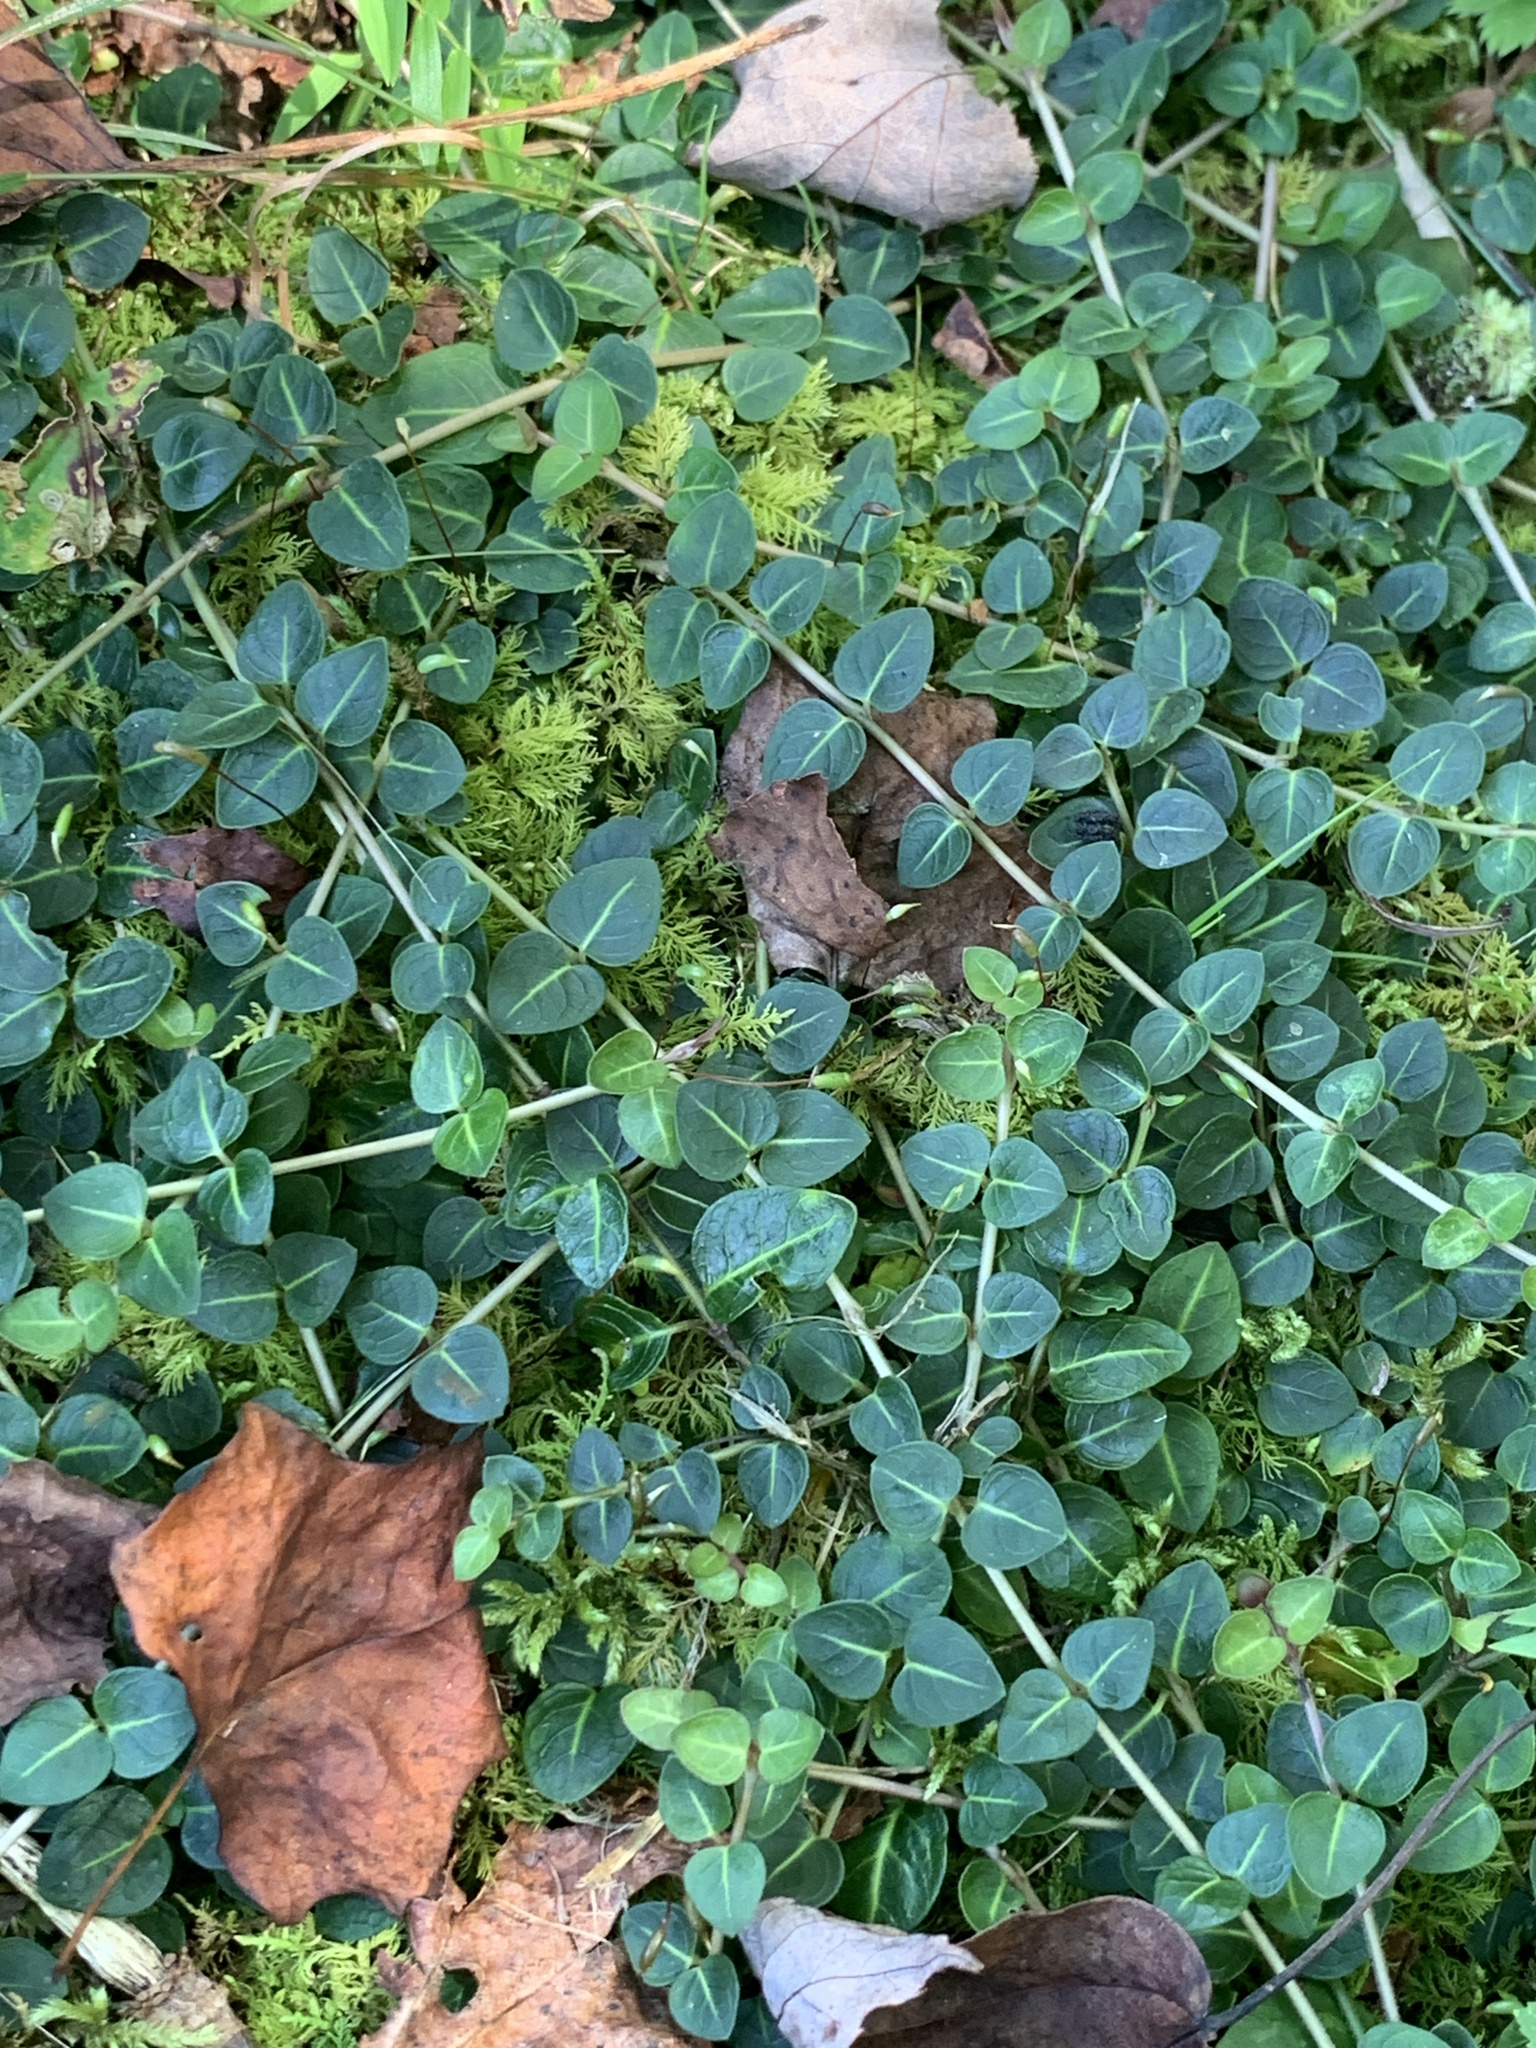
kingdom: Plantae
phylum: Tracheophyta
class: Magnoliopsida
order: Gentianales
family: Rubiaceae
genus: Mitchella
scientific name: Mitchella repens
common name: Partridge-berry
